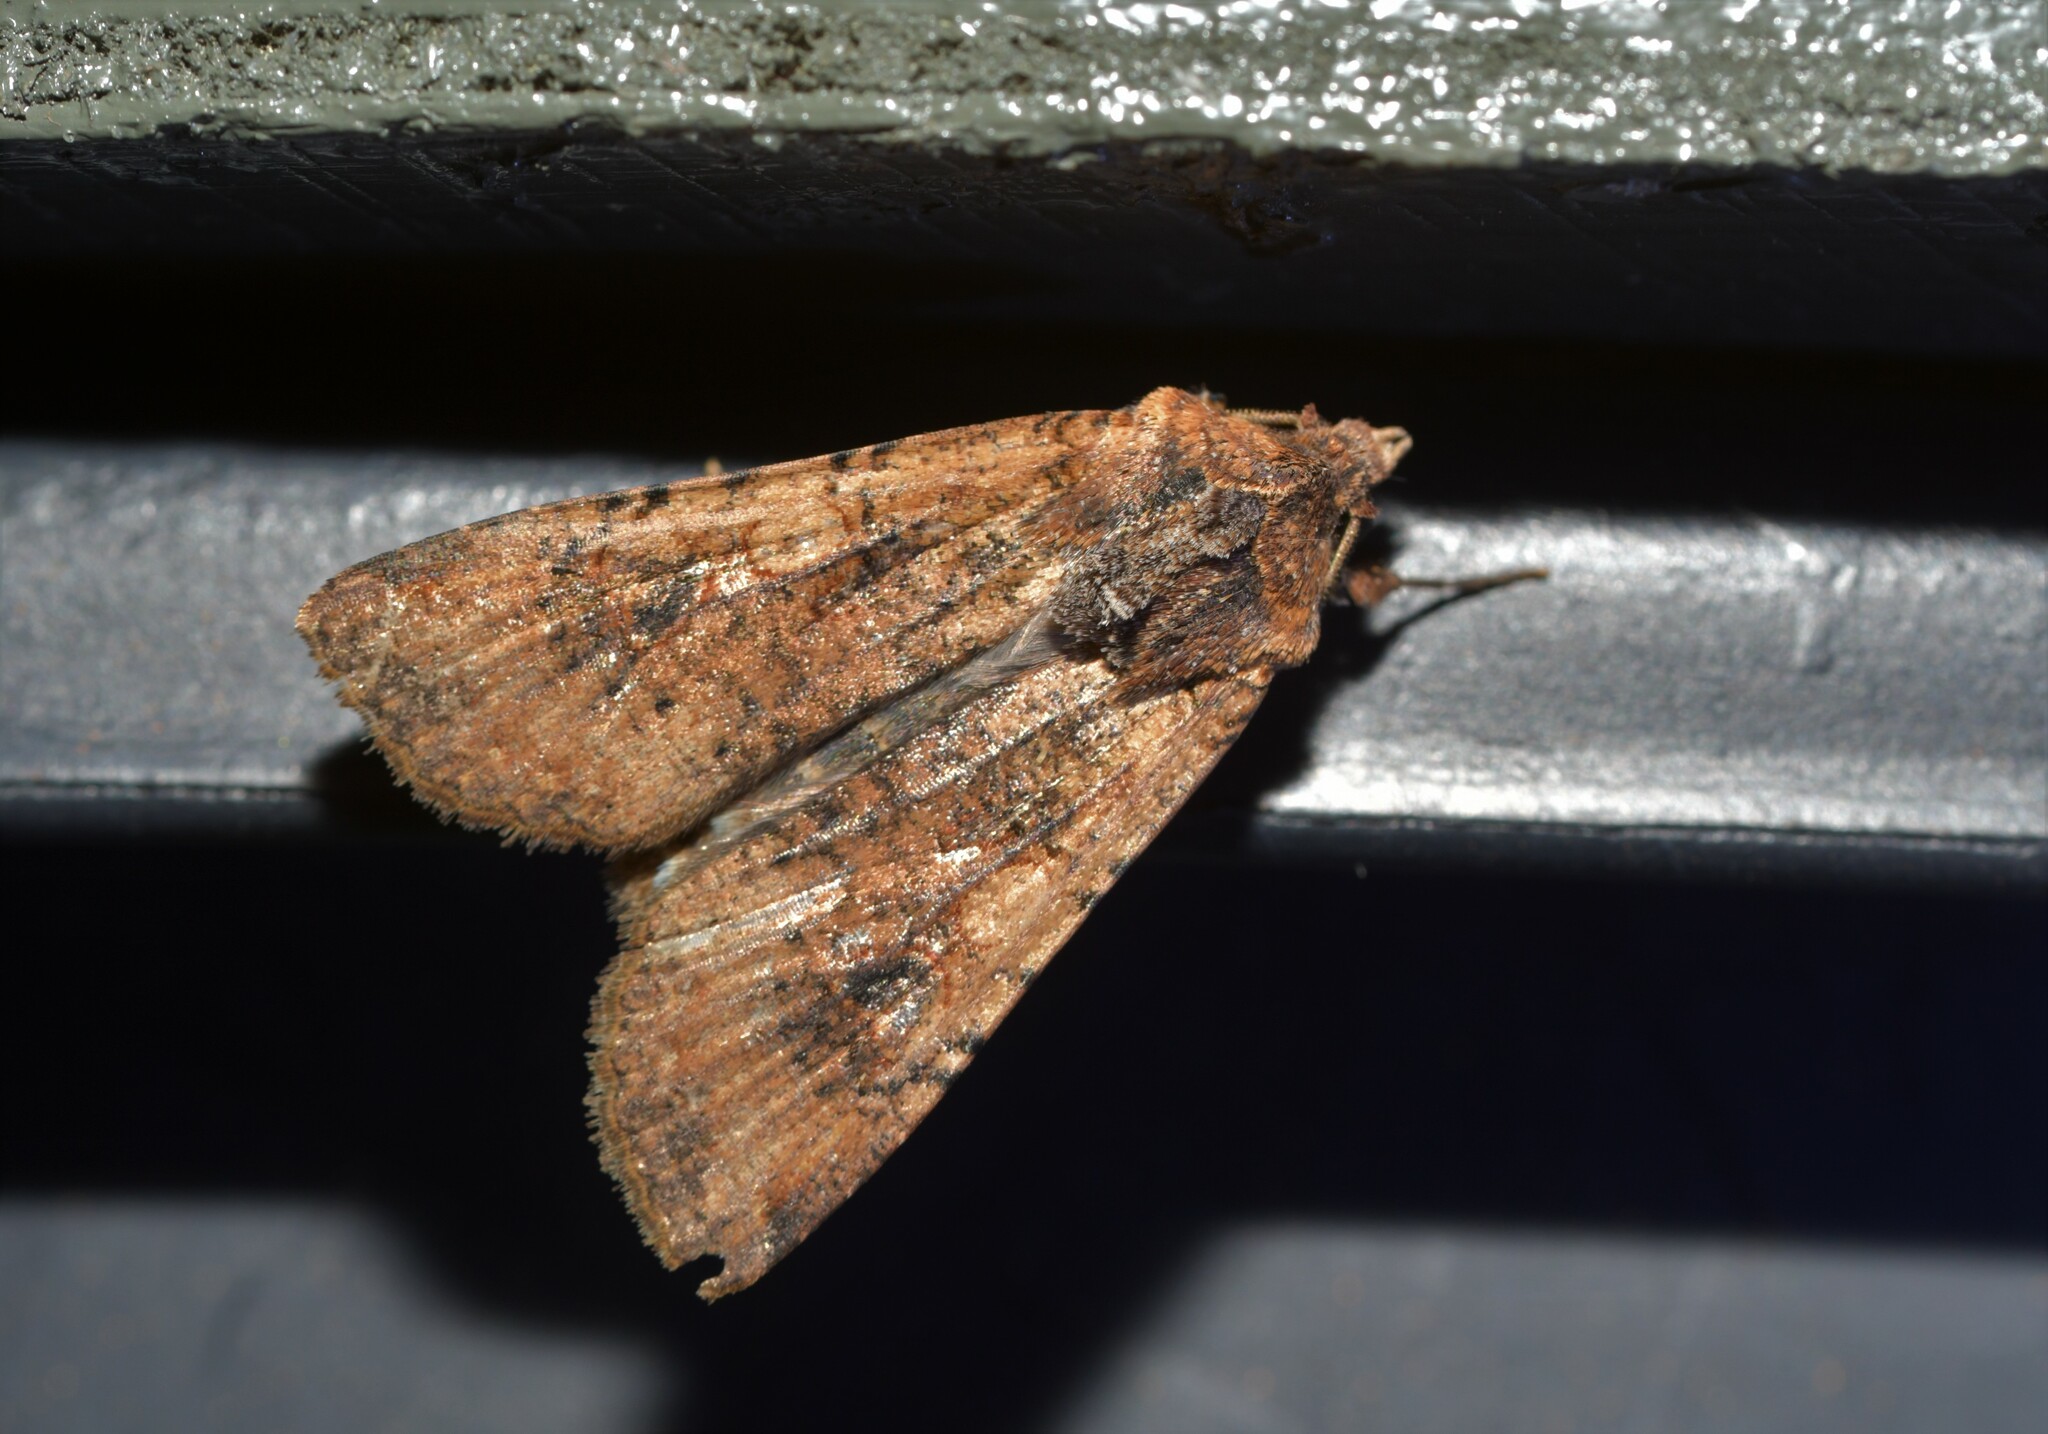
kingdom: Animalia
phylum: Arthropoda
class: Insecta
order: Lepidoptera
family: Noctuidae
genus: Peridroma
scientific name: Peridroma saucia
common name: Pearly underwing
